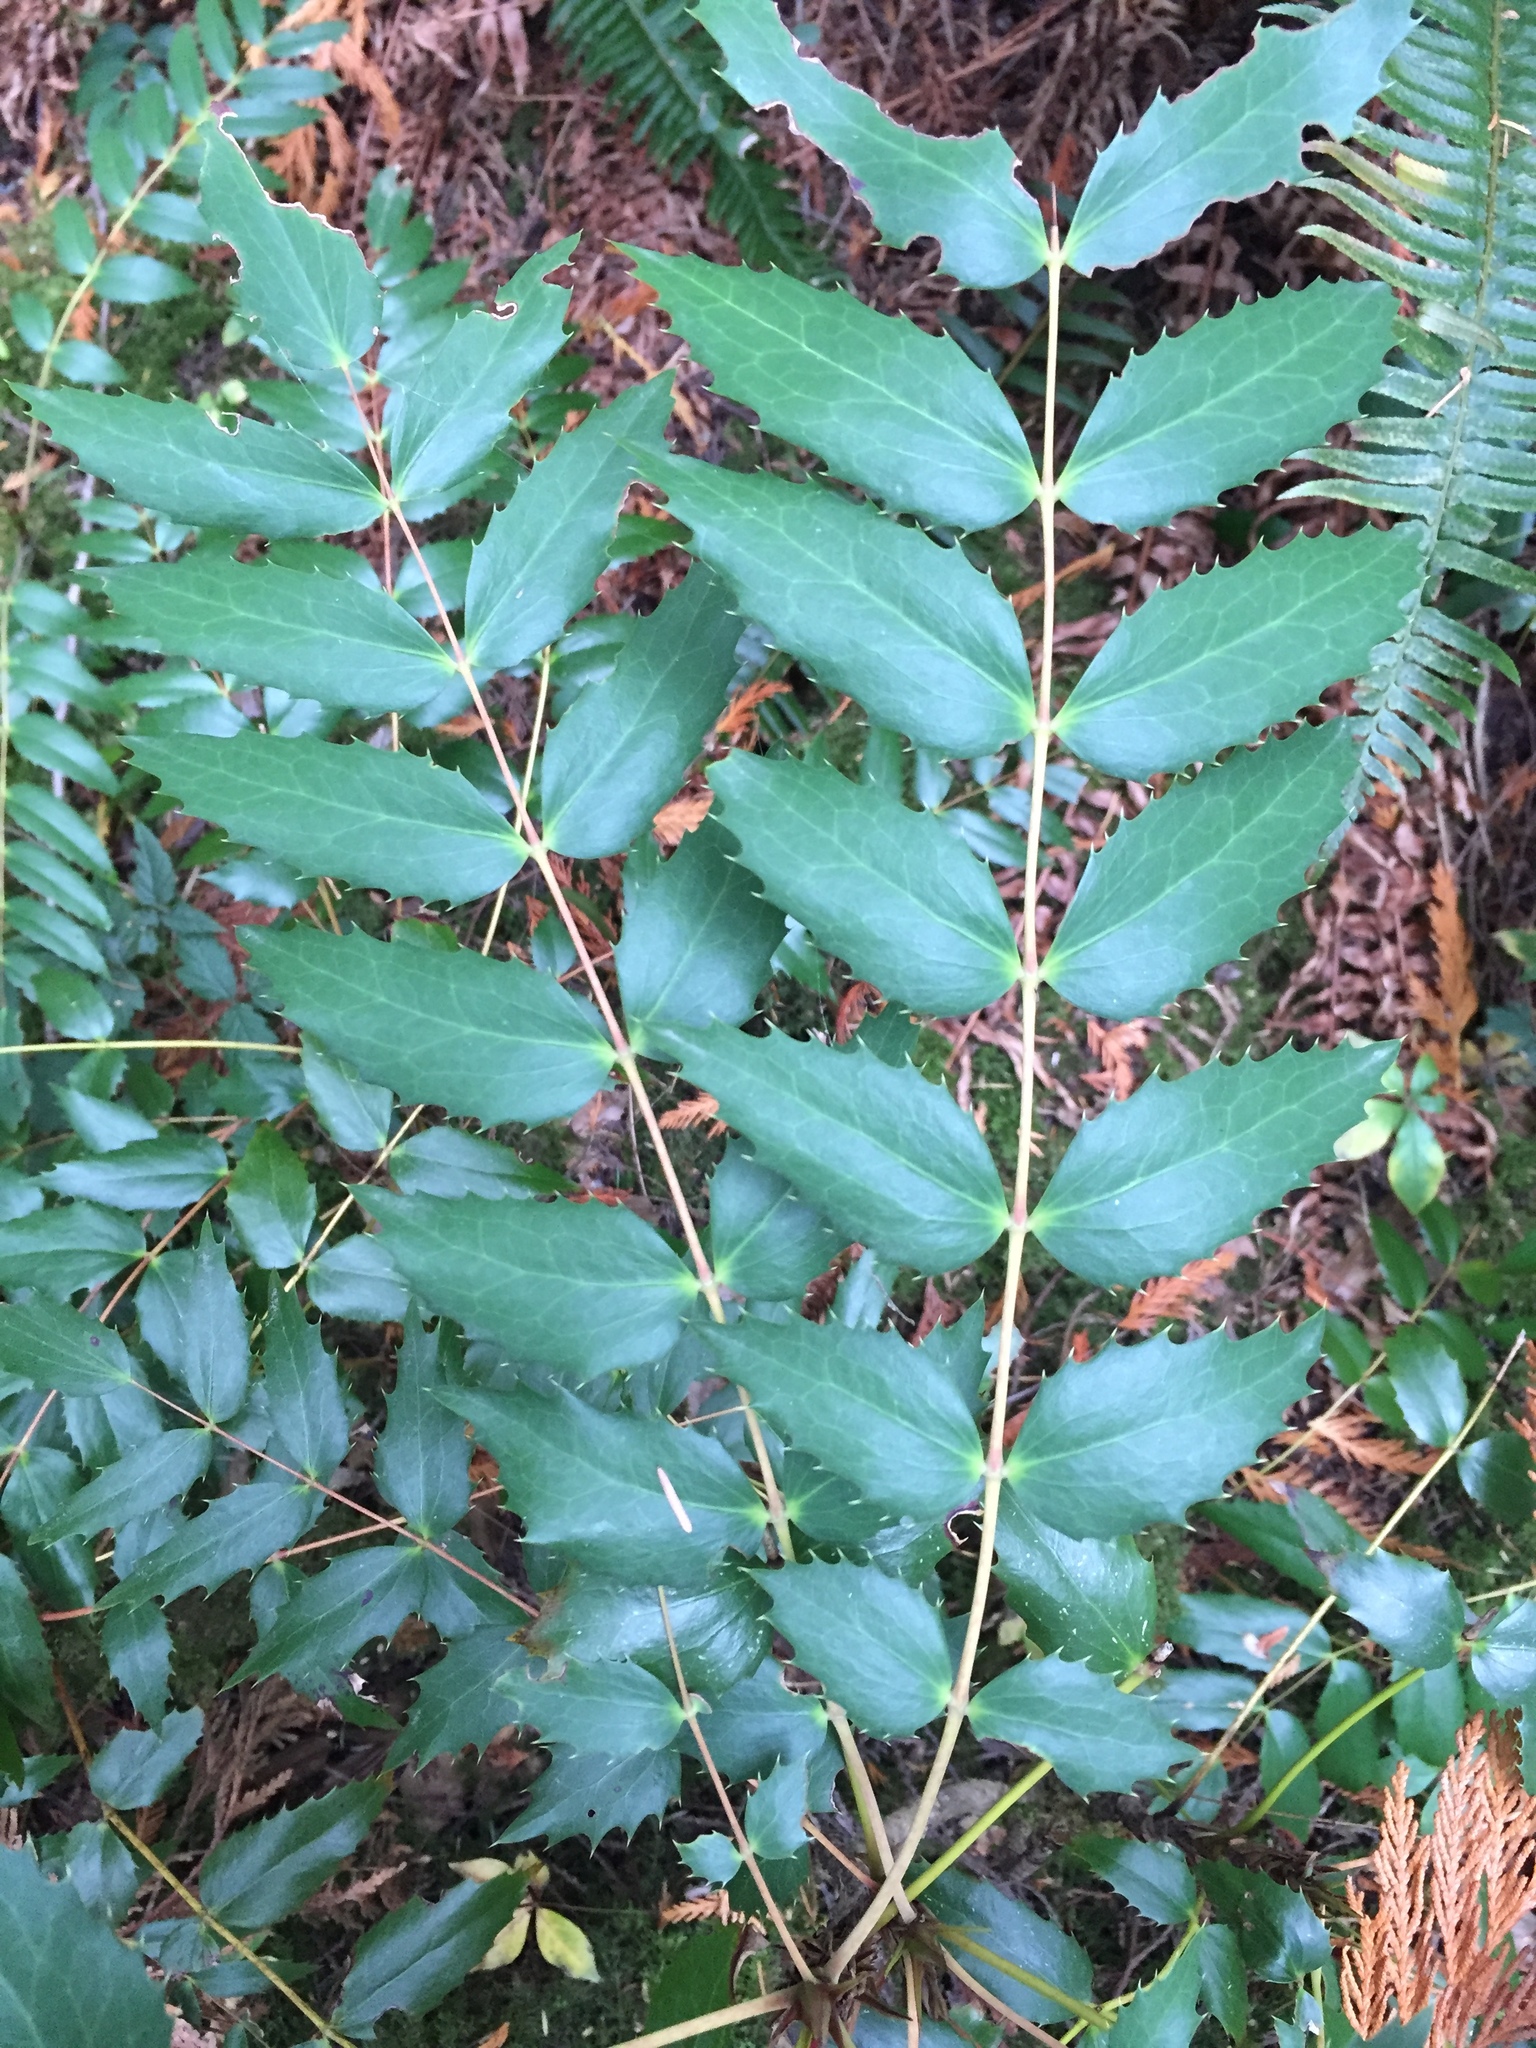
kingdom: Plantae
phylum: Tracheophyta
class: Magnoliopsida
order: Ranunculales
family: Berberidaceae
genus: Mahonia
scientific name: Mahonia nervosa
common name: Cascade oregon-grape
